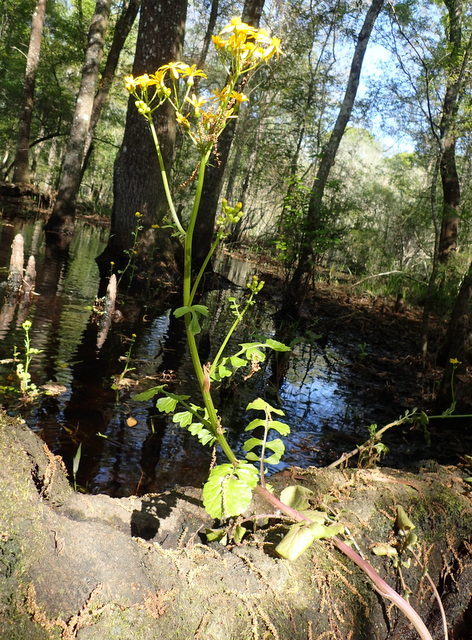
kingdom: Plantae
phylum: Tracheophyta
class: Magnoliopsida
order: Asterales
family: Asteraceae
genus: Packera
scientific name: Packera glabella
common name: Butterweed
